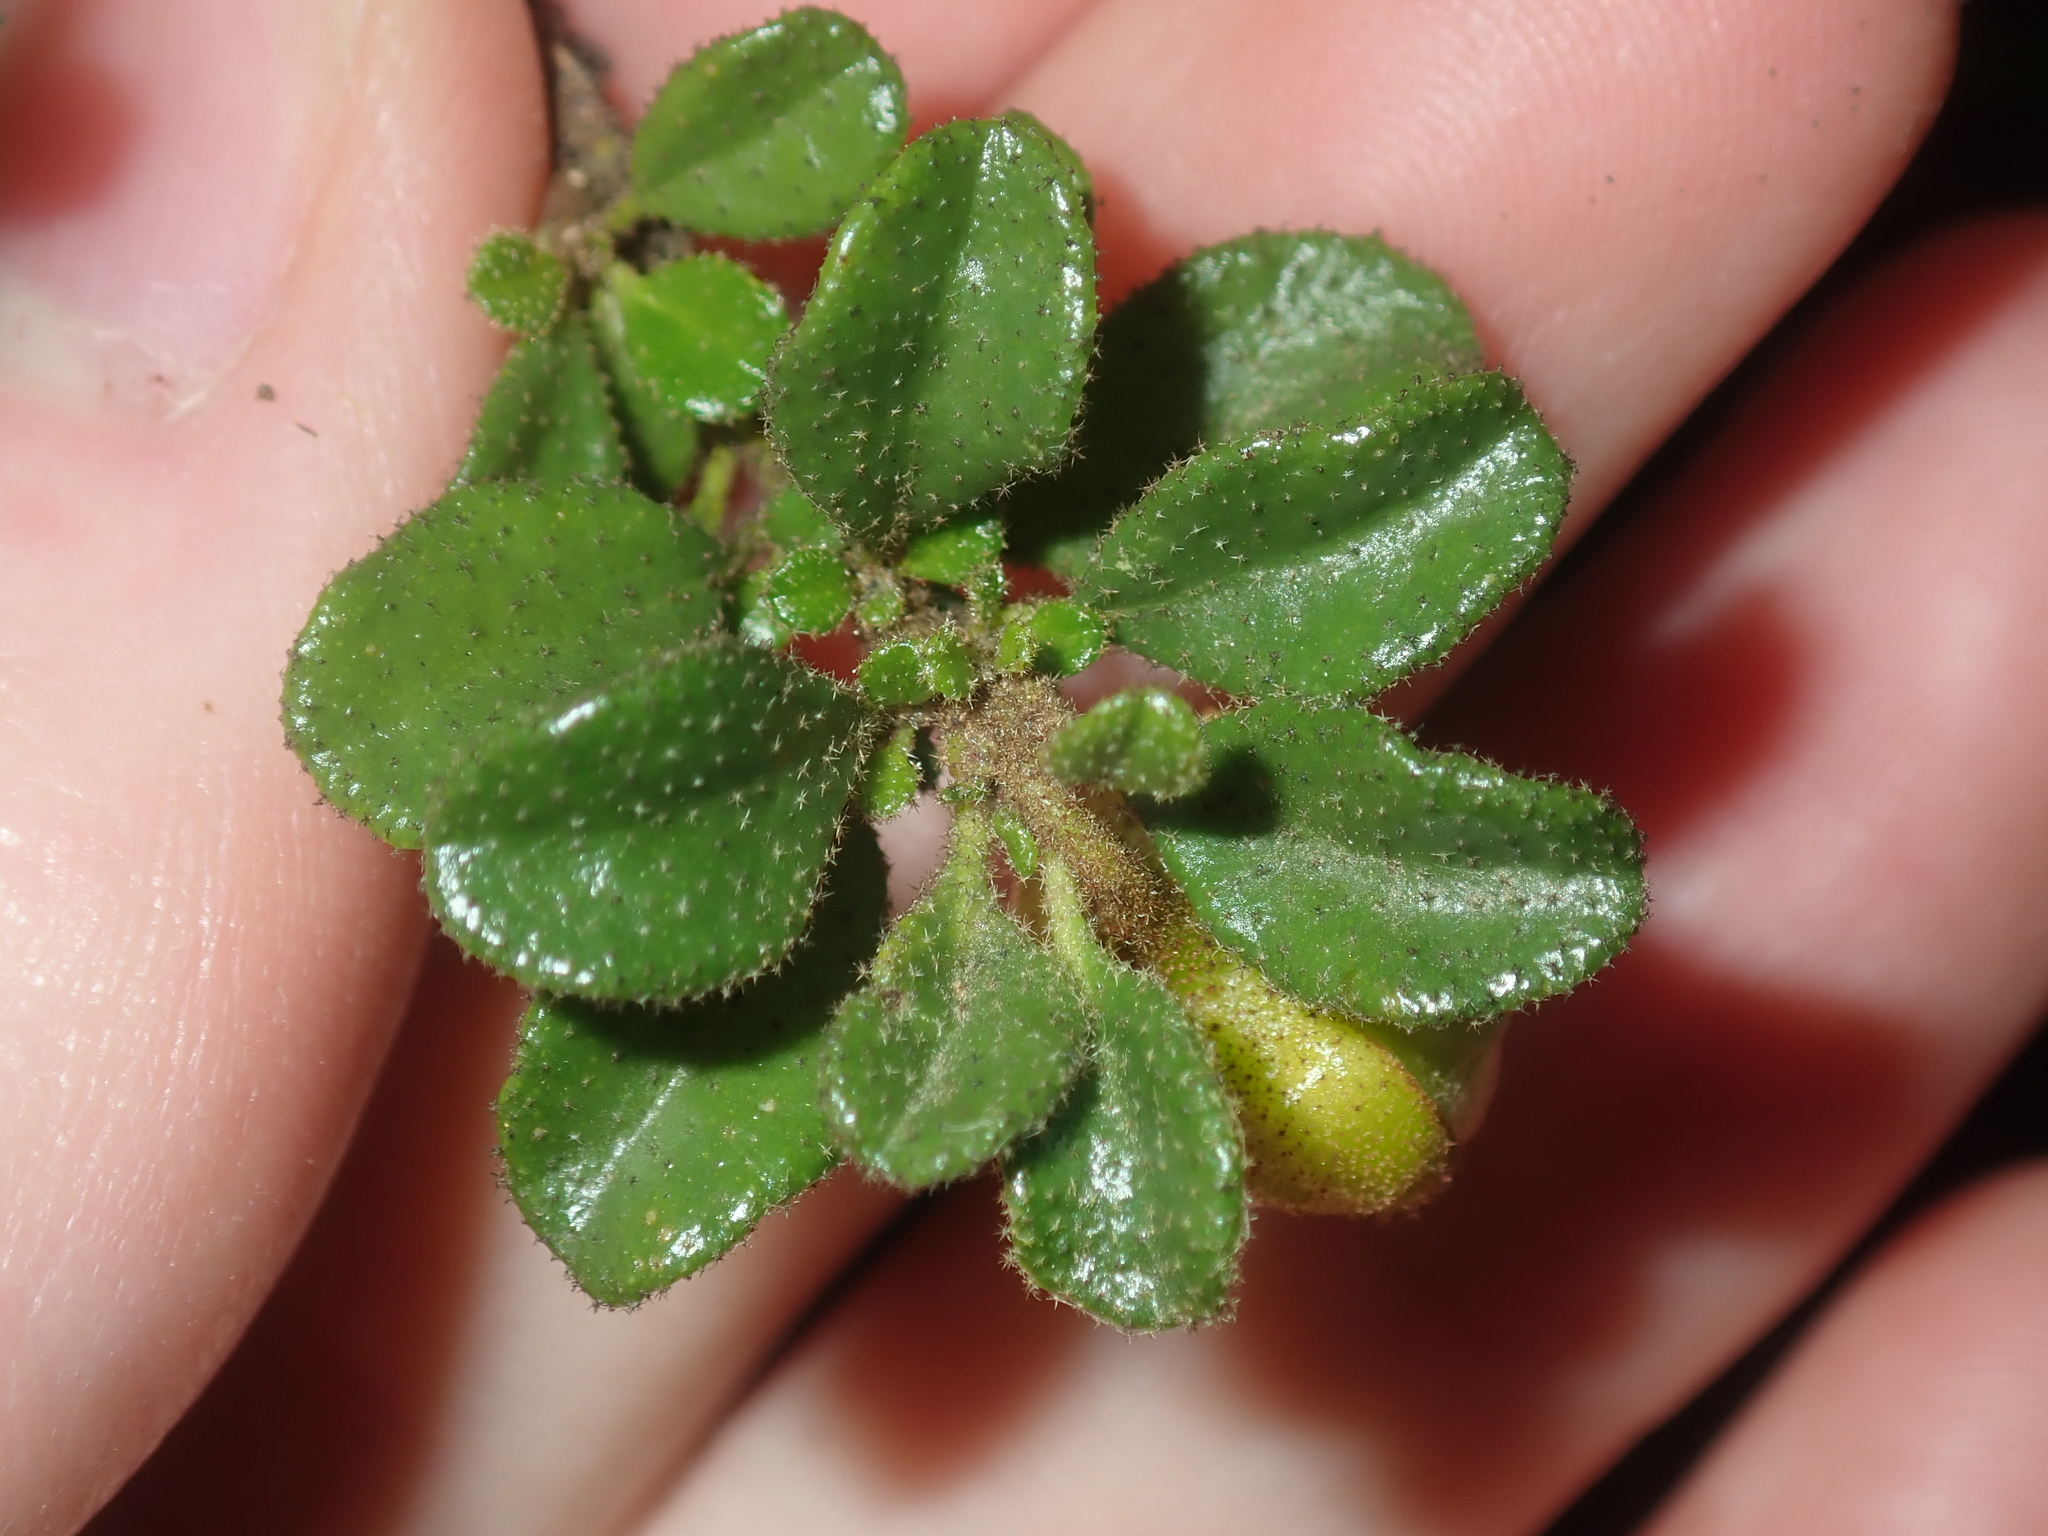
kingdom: Plantae
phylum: Tracheophyta
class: Magnoliopsida
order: Sapindales
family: Rutaceae
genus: Diplolaena
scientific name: Diplolaena obovata
